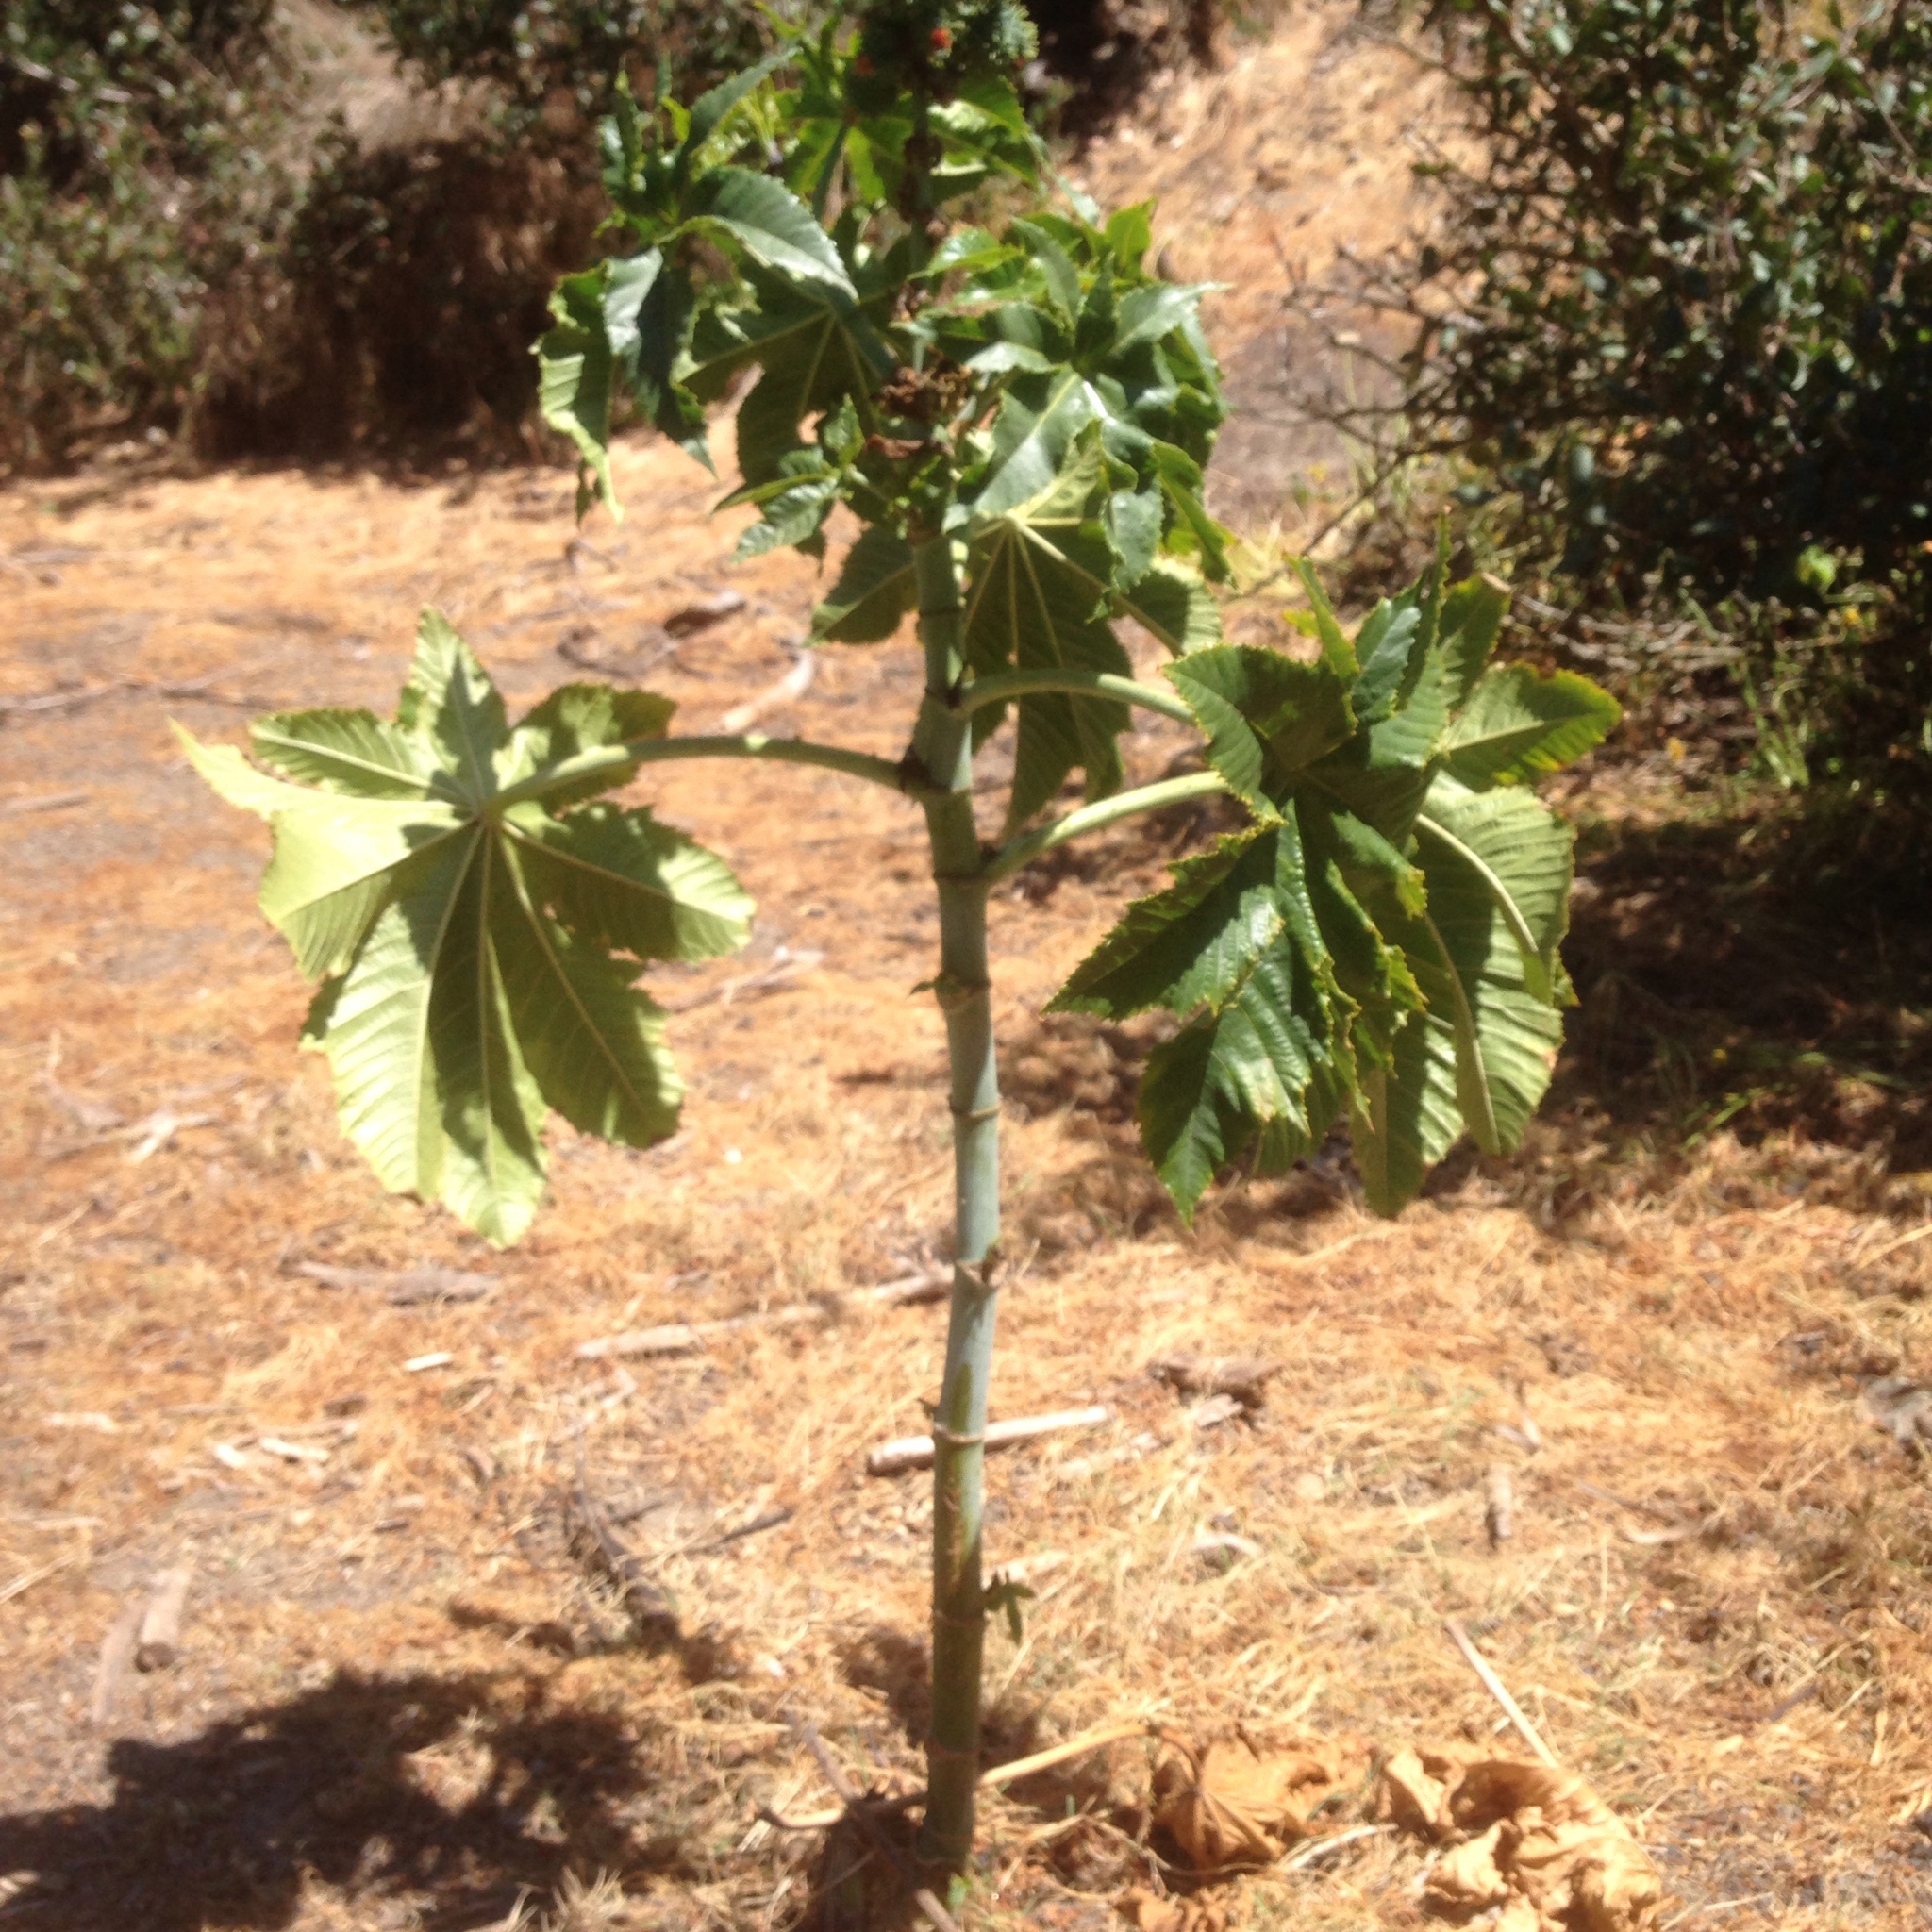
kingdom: Plantae
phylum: Tracheophyta
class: Magnoliopsida
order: Malpighiales
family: Euphorbiaceae
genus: Ricinus
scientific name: Ricinus communis
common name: Castor-oil-plant
